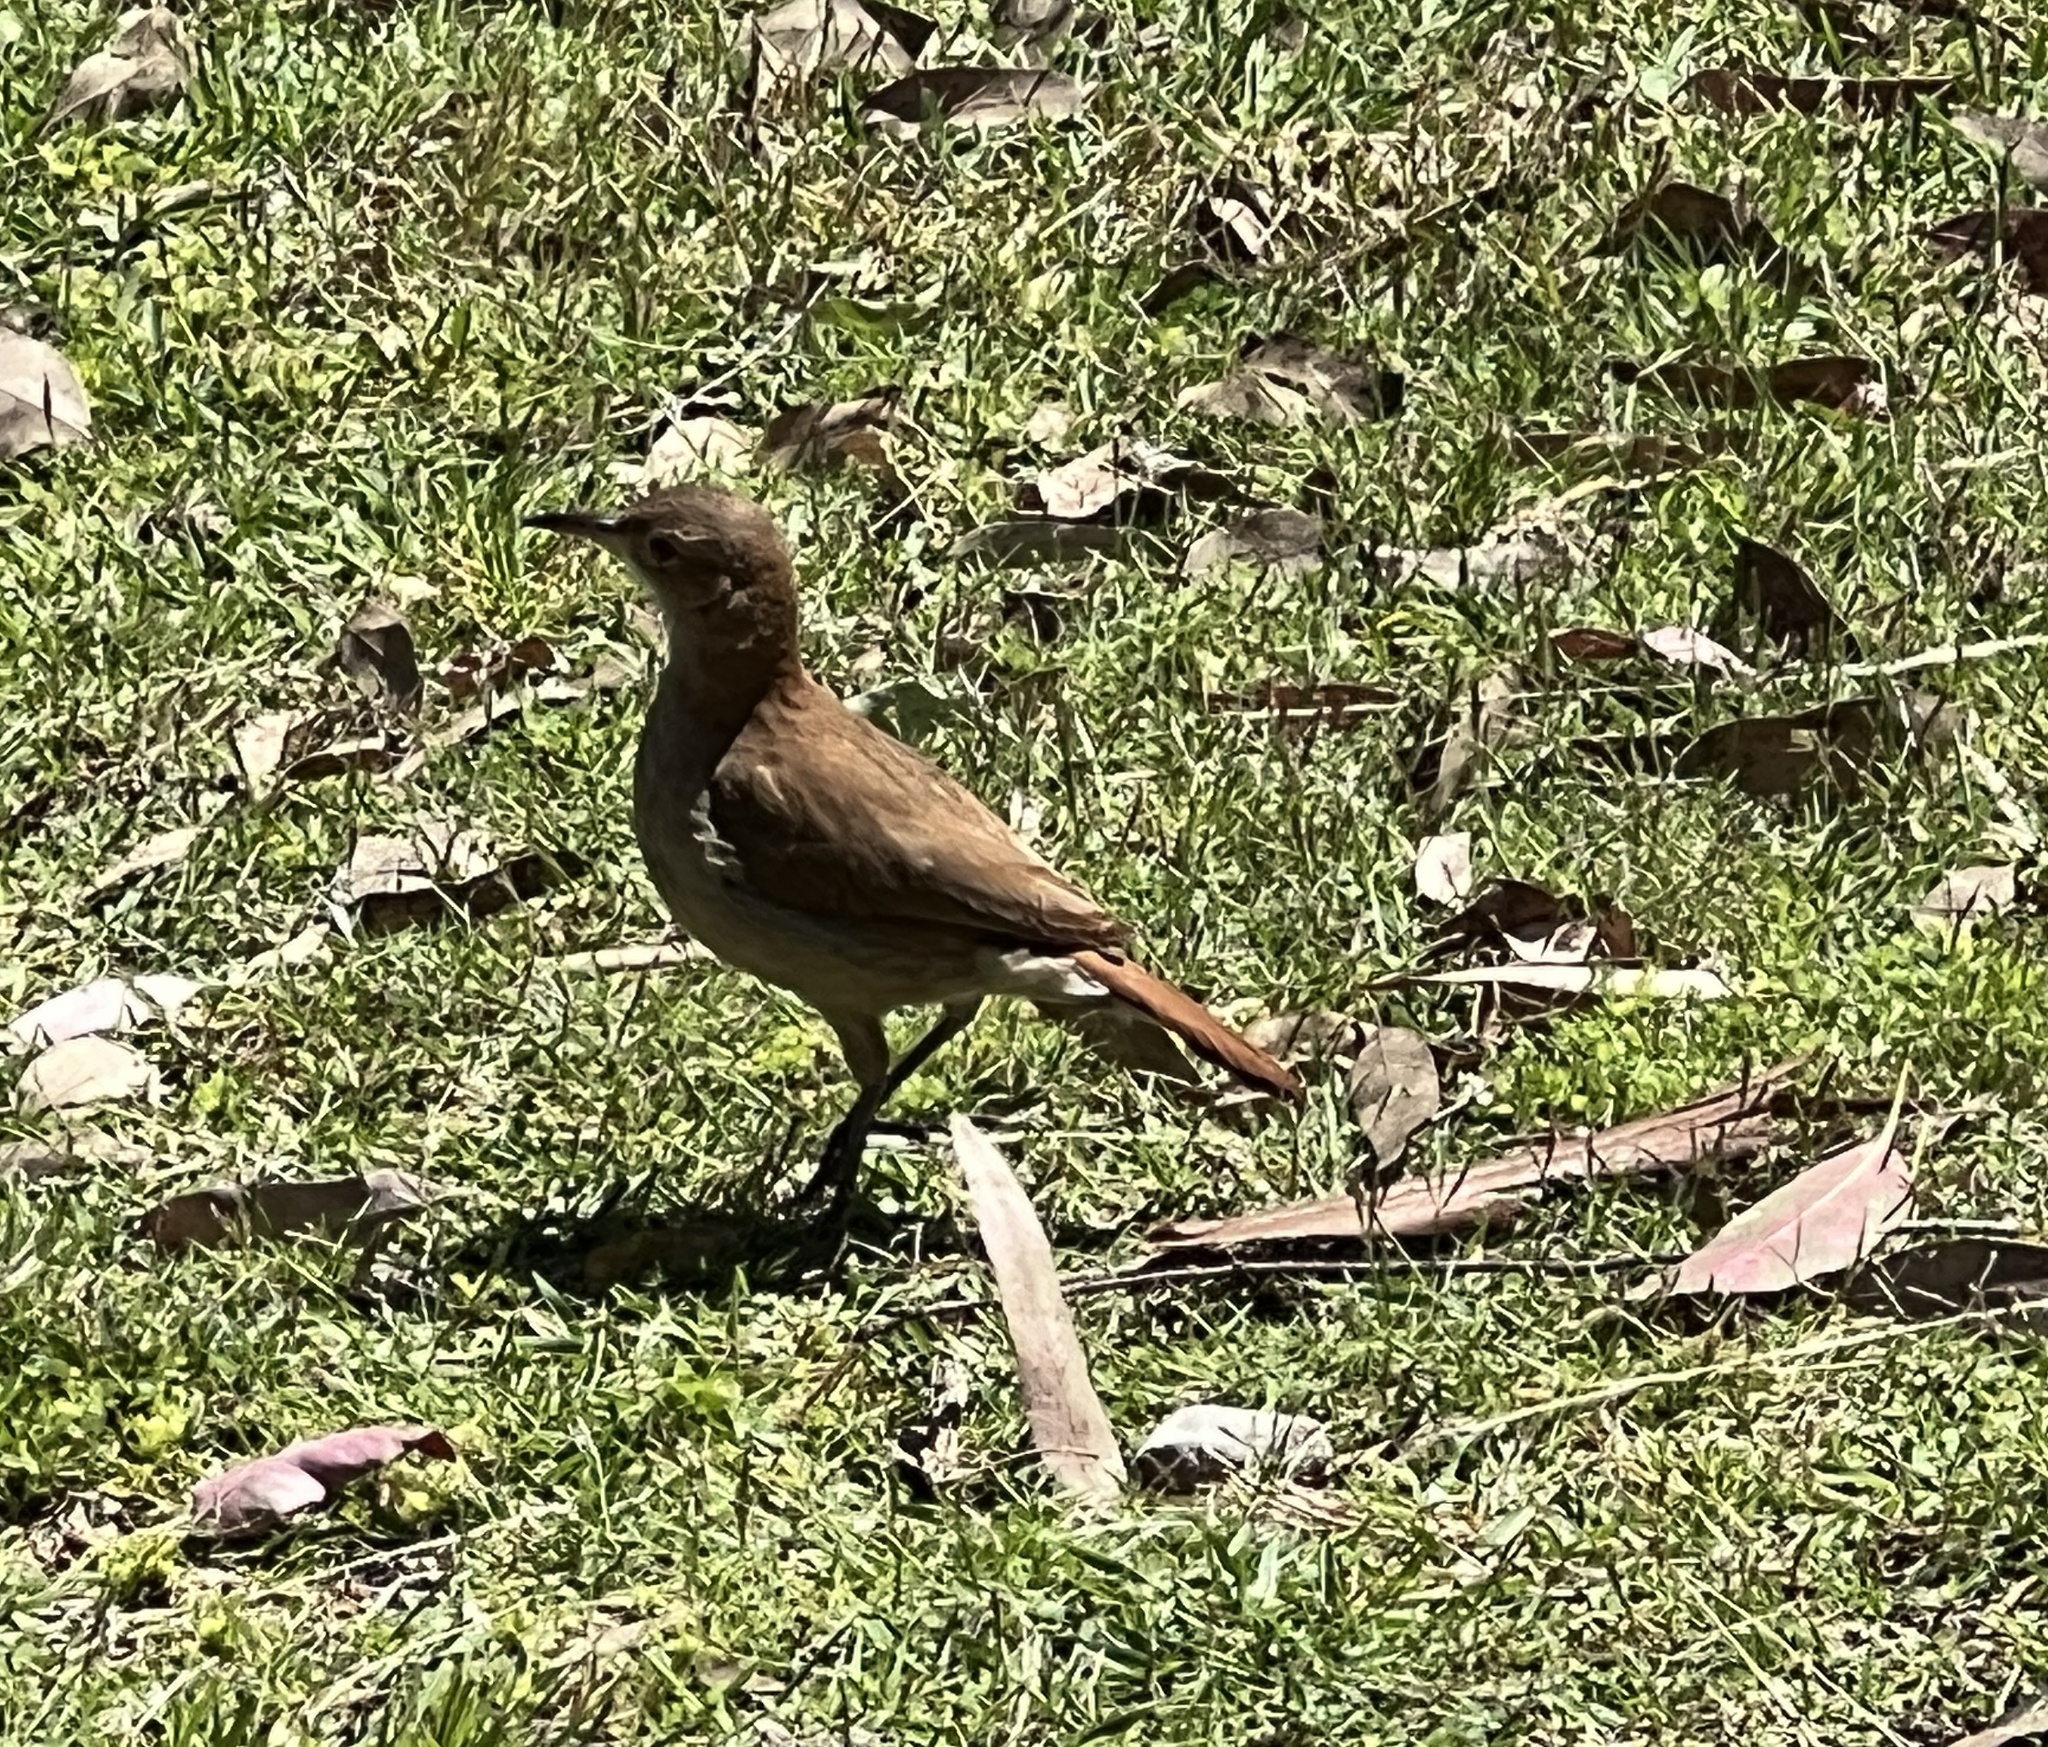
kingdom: Animalia
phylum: Chordata
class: Aves
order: Passeriformes
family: Furnariidae
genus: Furnarius
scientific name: Furnarius rufus
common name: Rufous hornero
